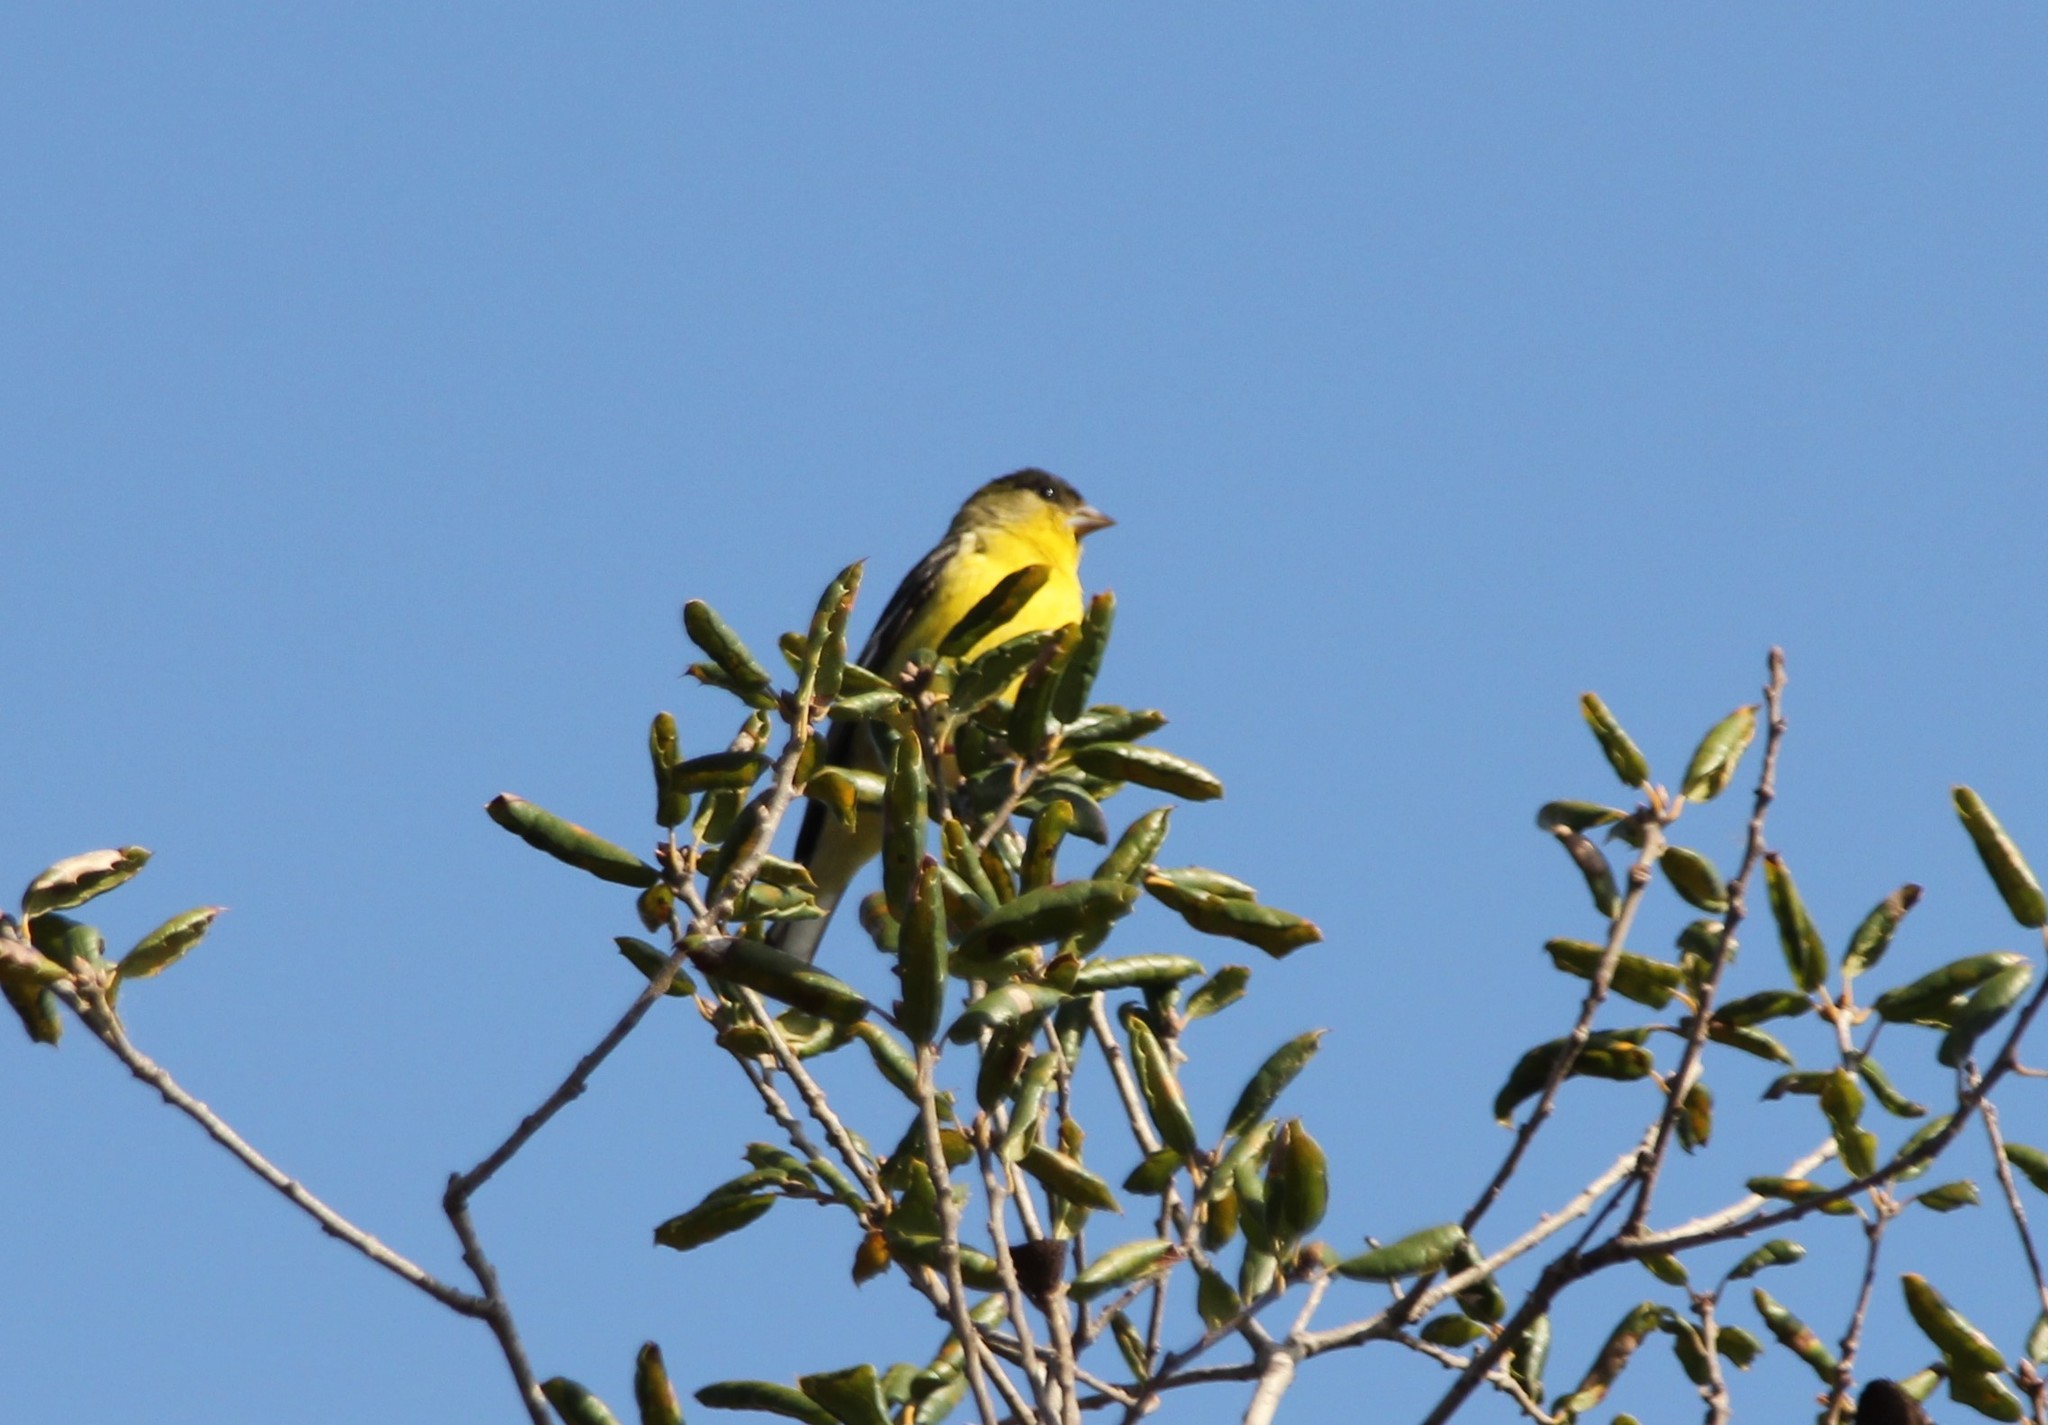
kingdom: Animalia
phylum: Chordata
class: Aves
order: Passeriformes
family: Fringillidae
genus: Spinus
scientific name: Spinus psaltria
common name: Lesser goldfinch
